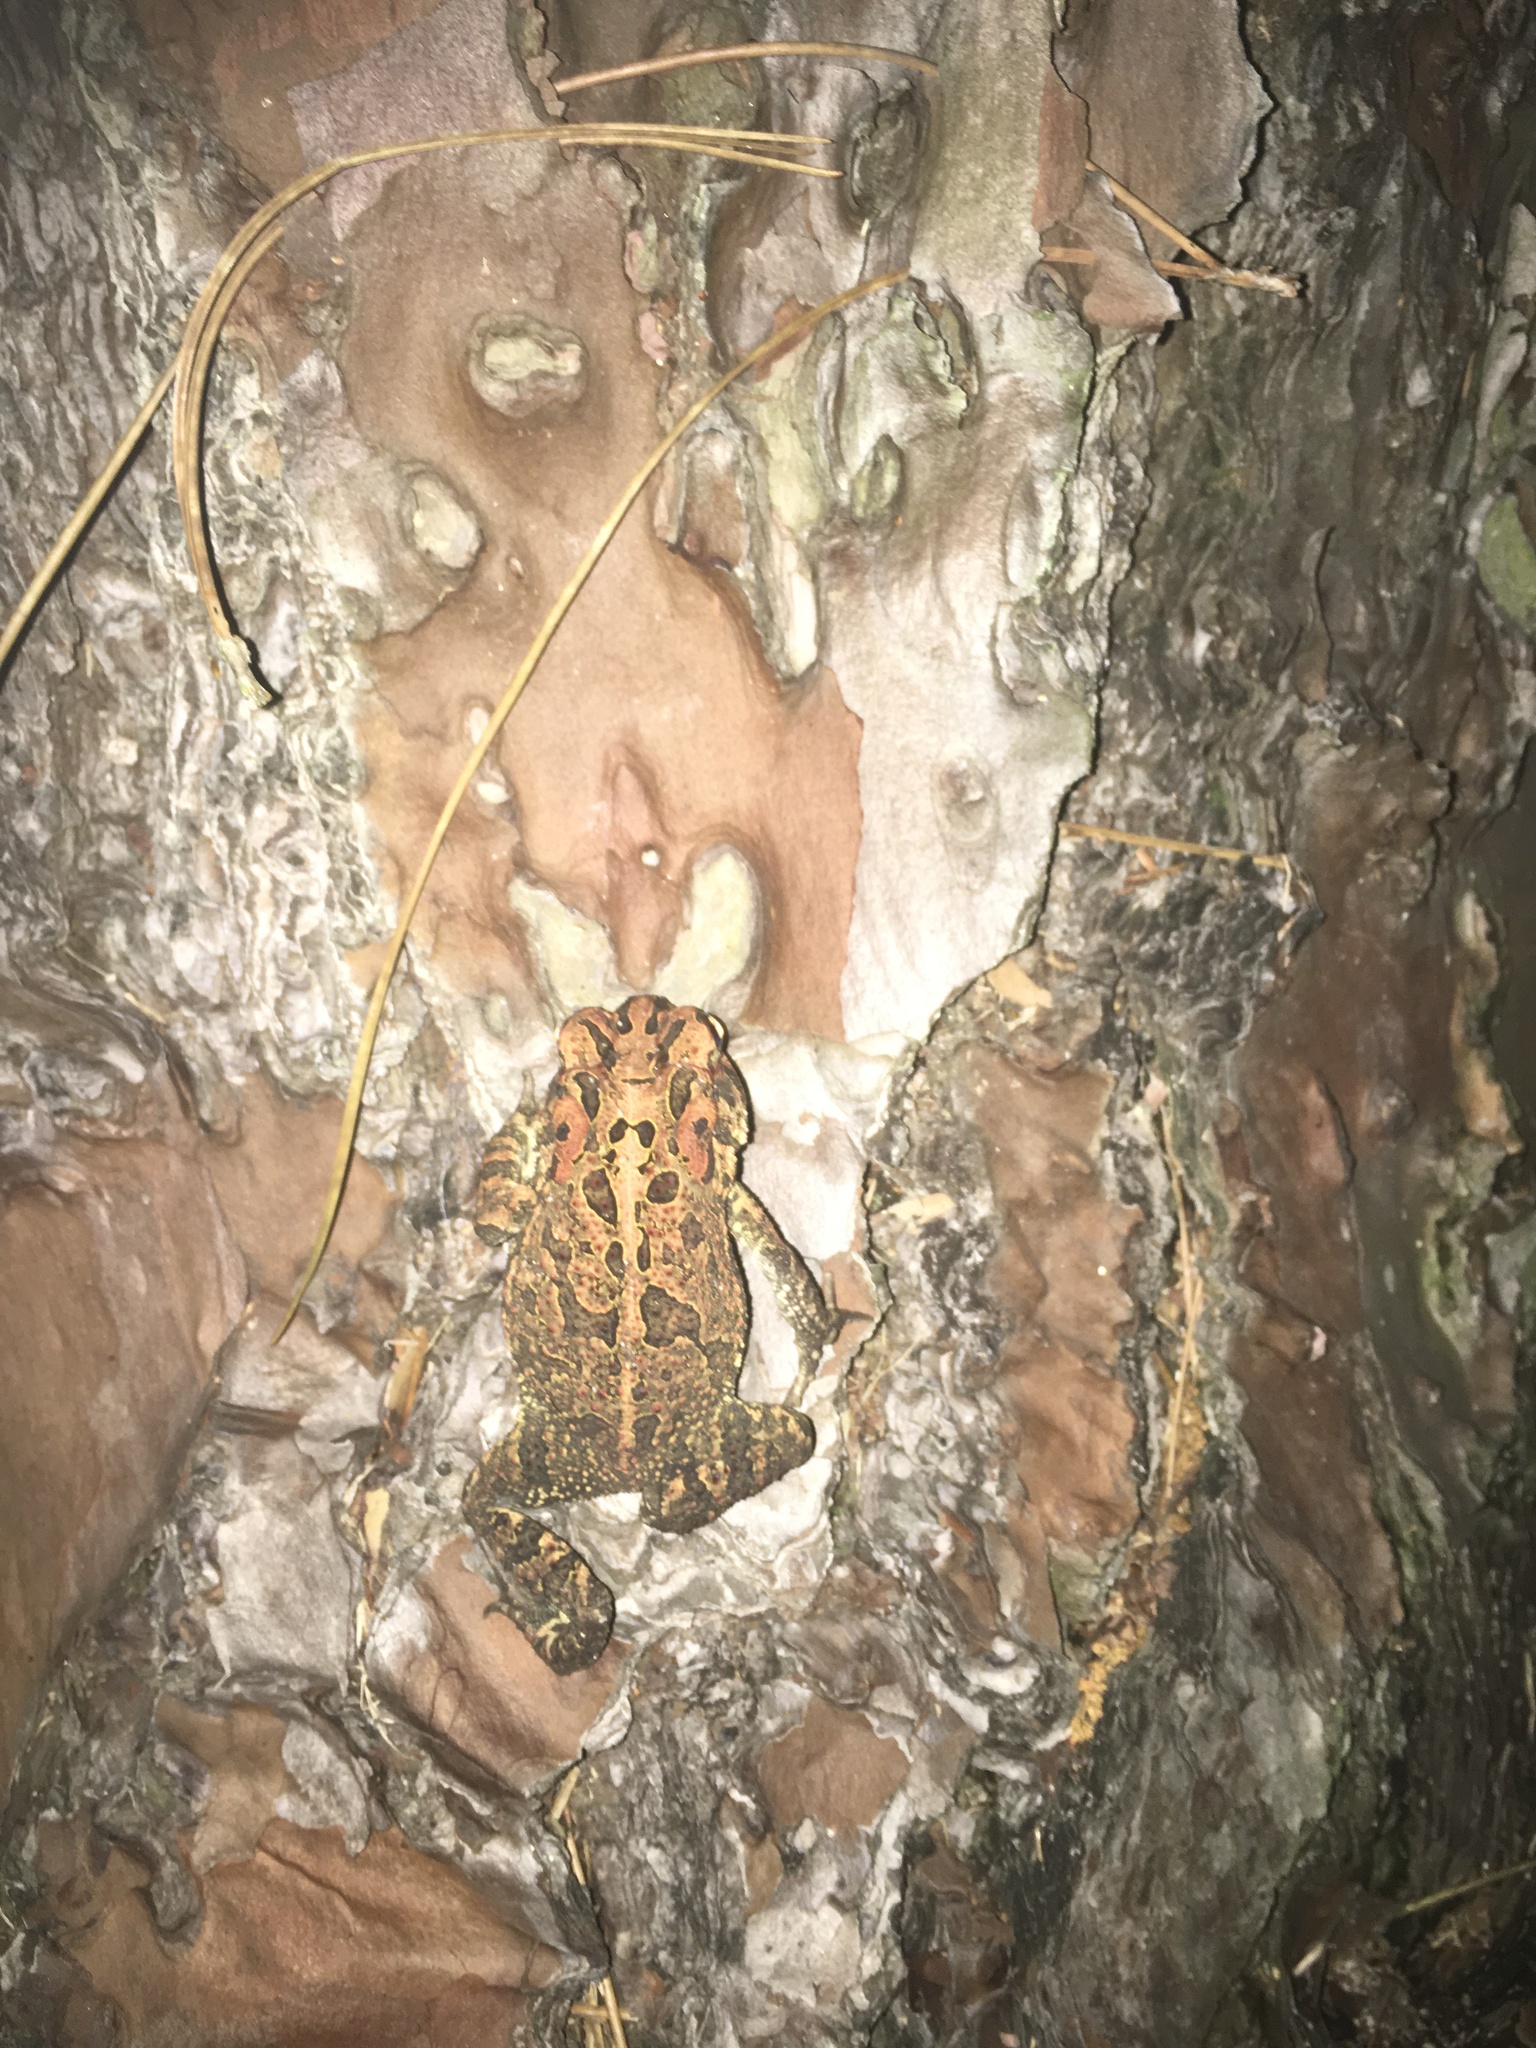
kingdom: Animalia
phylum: Chordata
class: Amphibia
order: Anura
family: Bufonidae
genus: Anaxyrus
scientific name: Anaxyrus terrestris
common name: Southern toad
